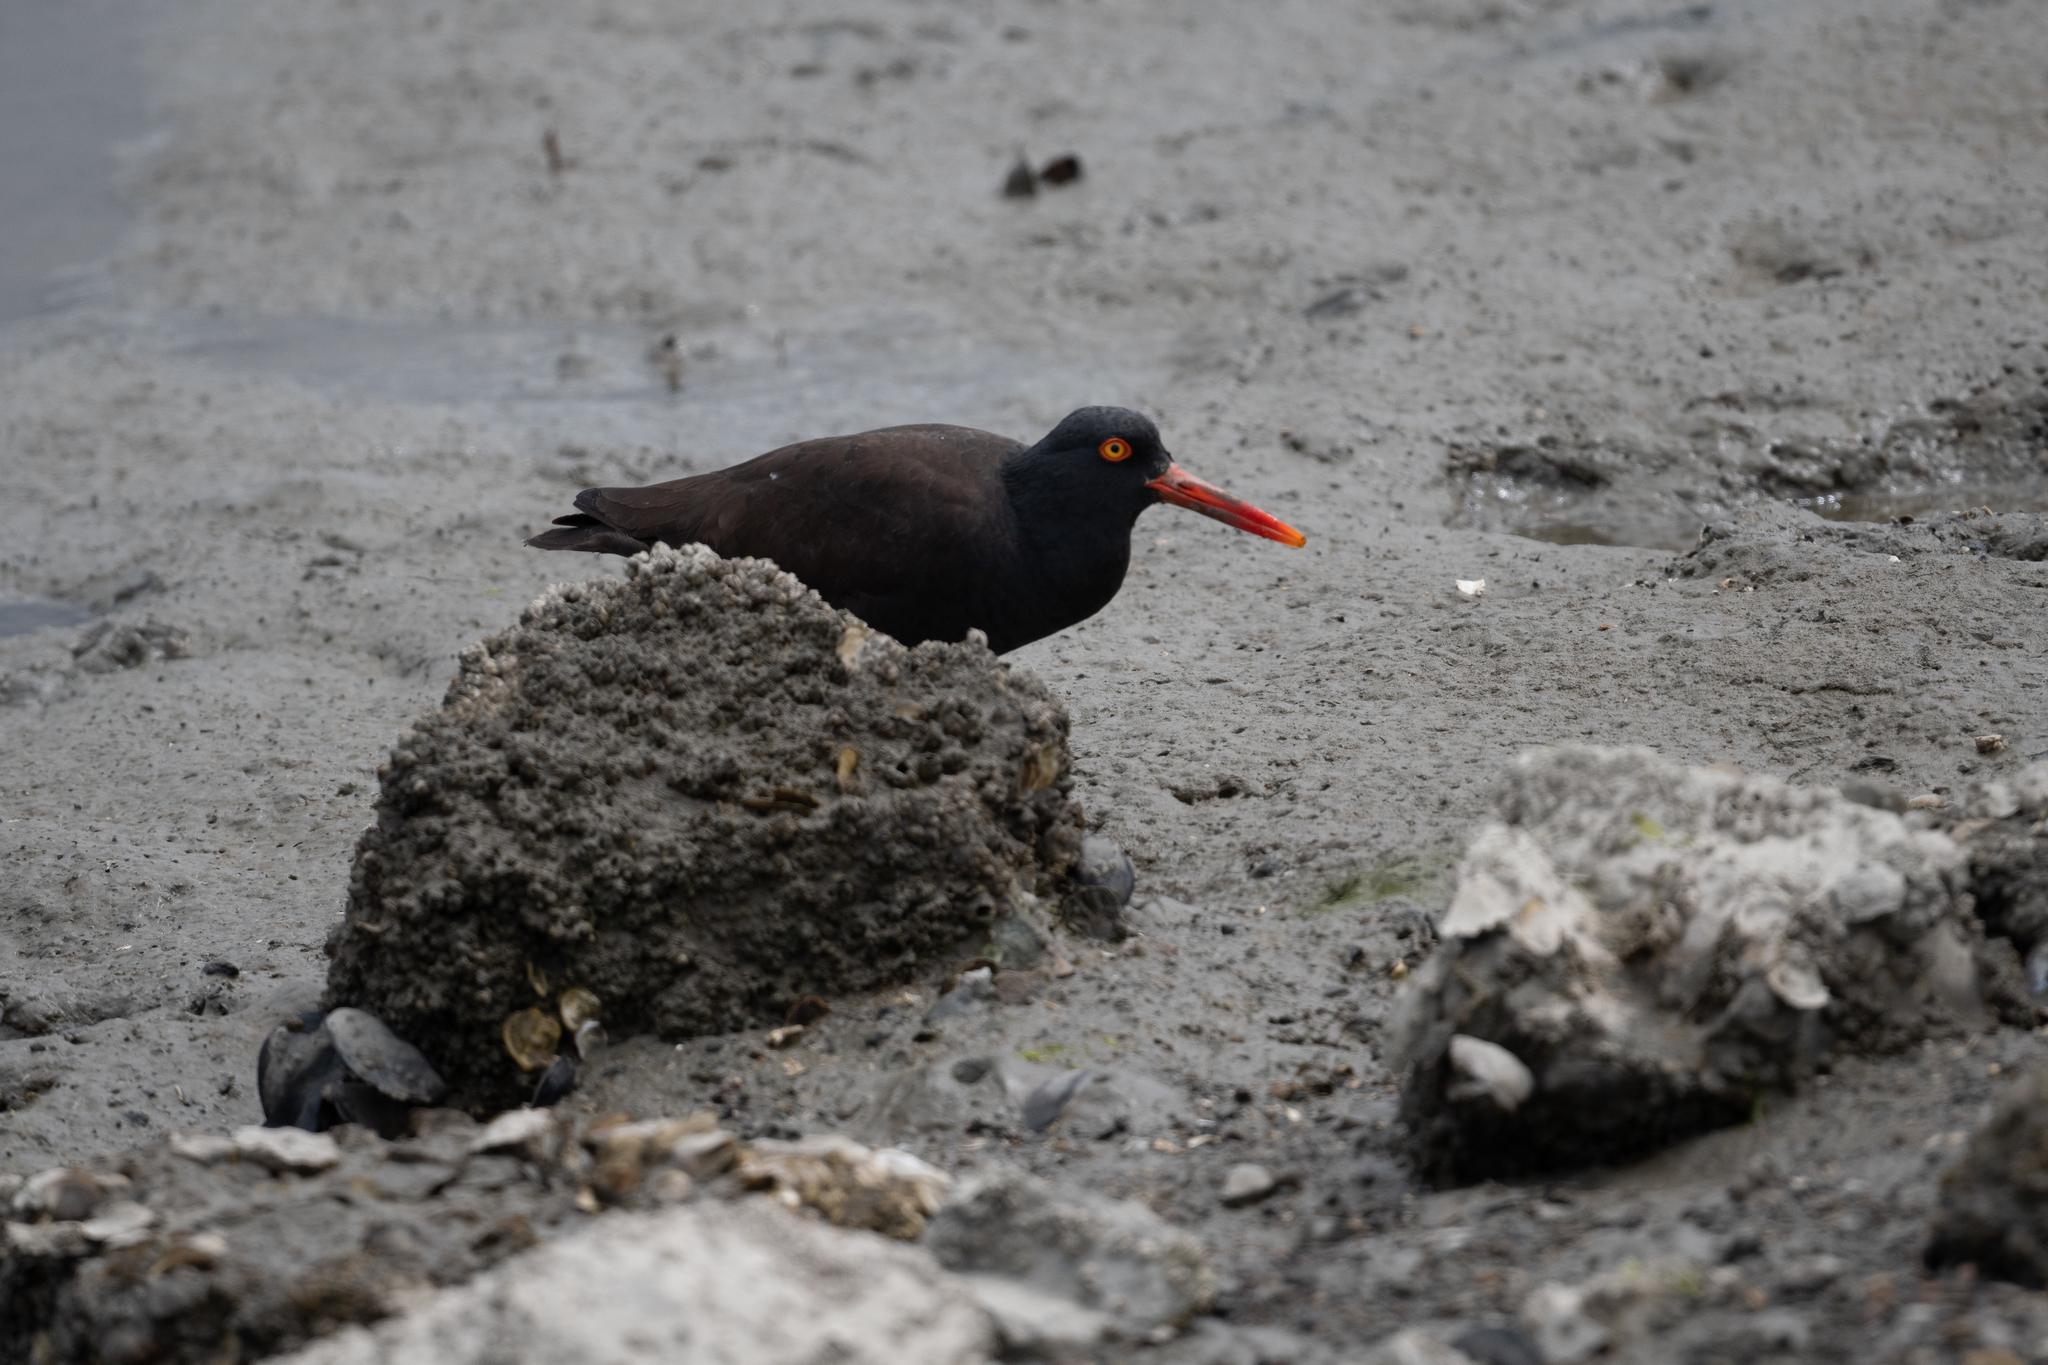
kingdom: Animalia
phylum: Chordata
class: Aves
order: Charadriiformes
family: Haematopodidae
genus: Haematopus
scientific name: Haematopus bachmani
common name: Black oystercatcher
